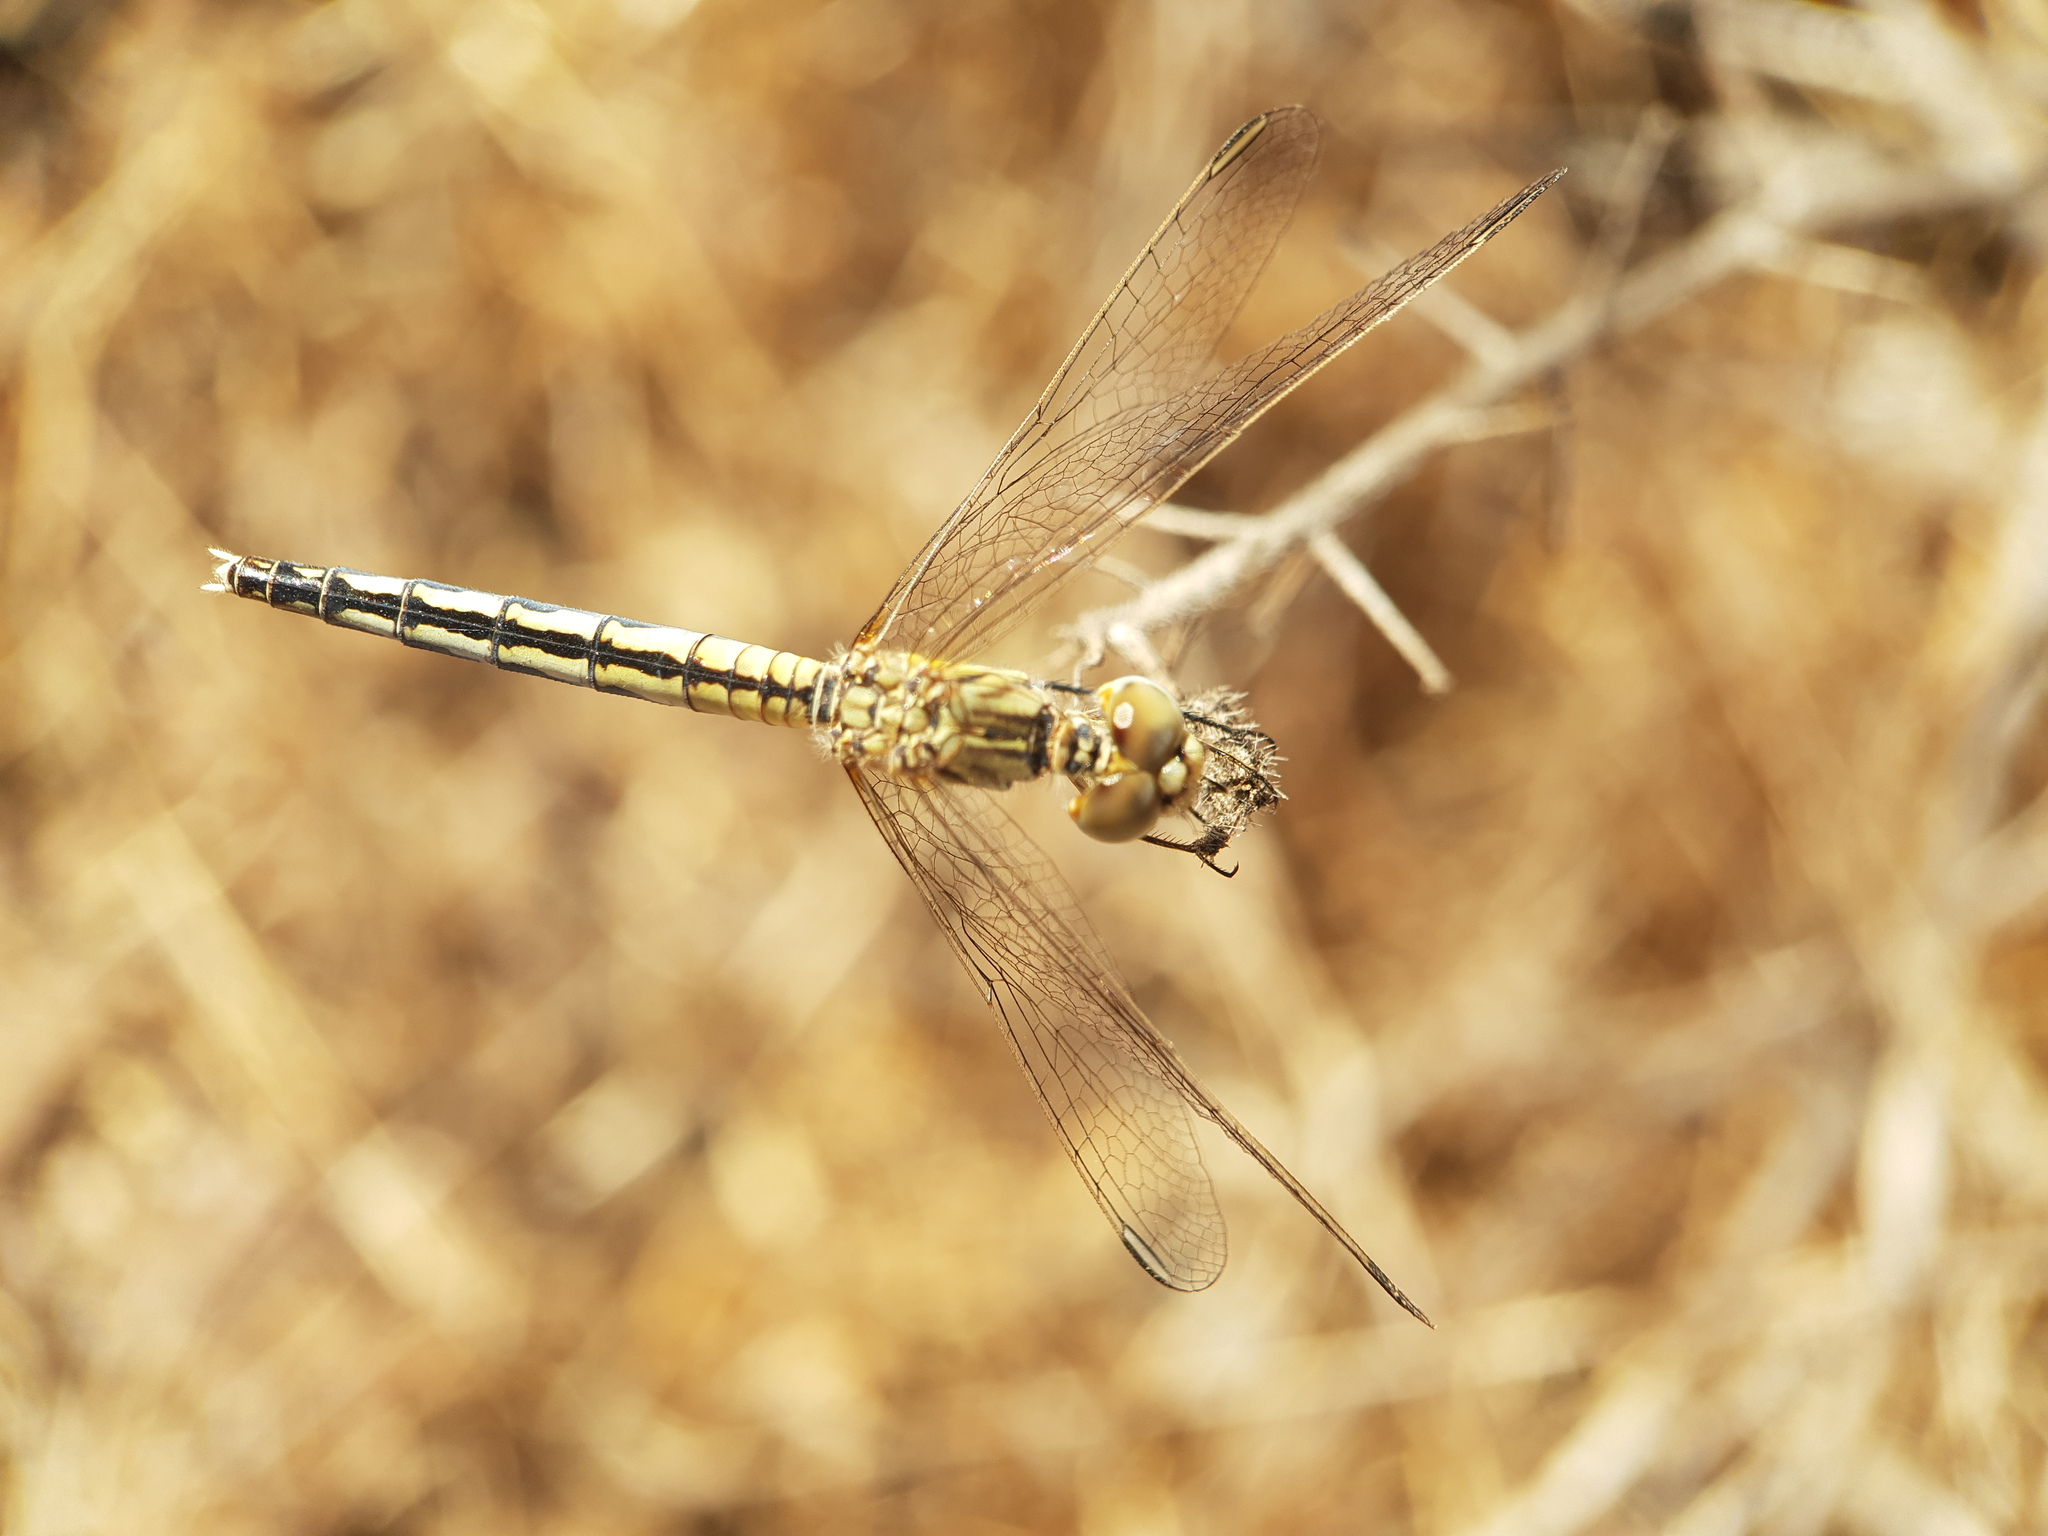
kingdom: Animalia
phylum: Arthropoda
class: Insecta
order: Odonata
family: Libellulidae
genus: Diplacodes
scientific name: Diplacodes lefebvrii
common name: Black percher
